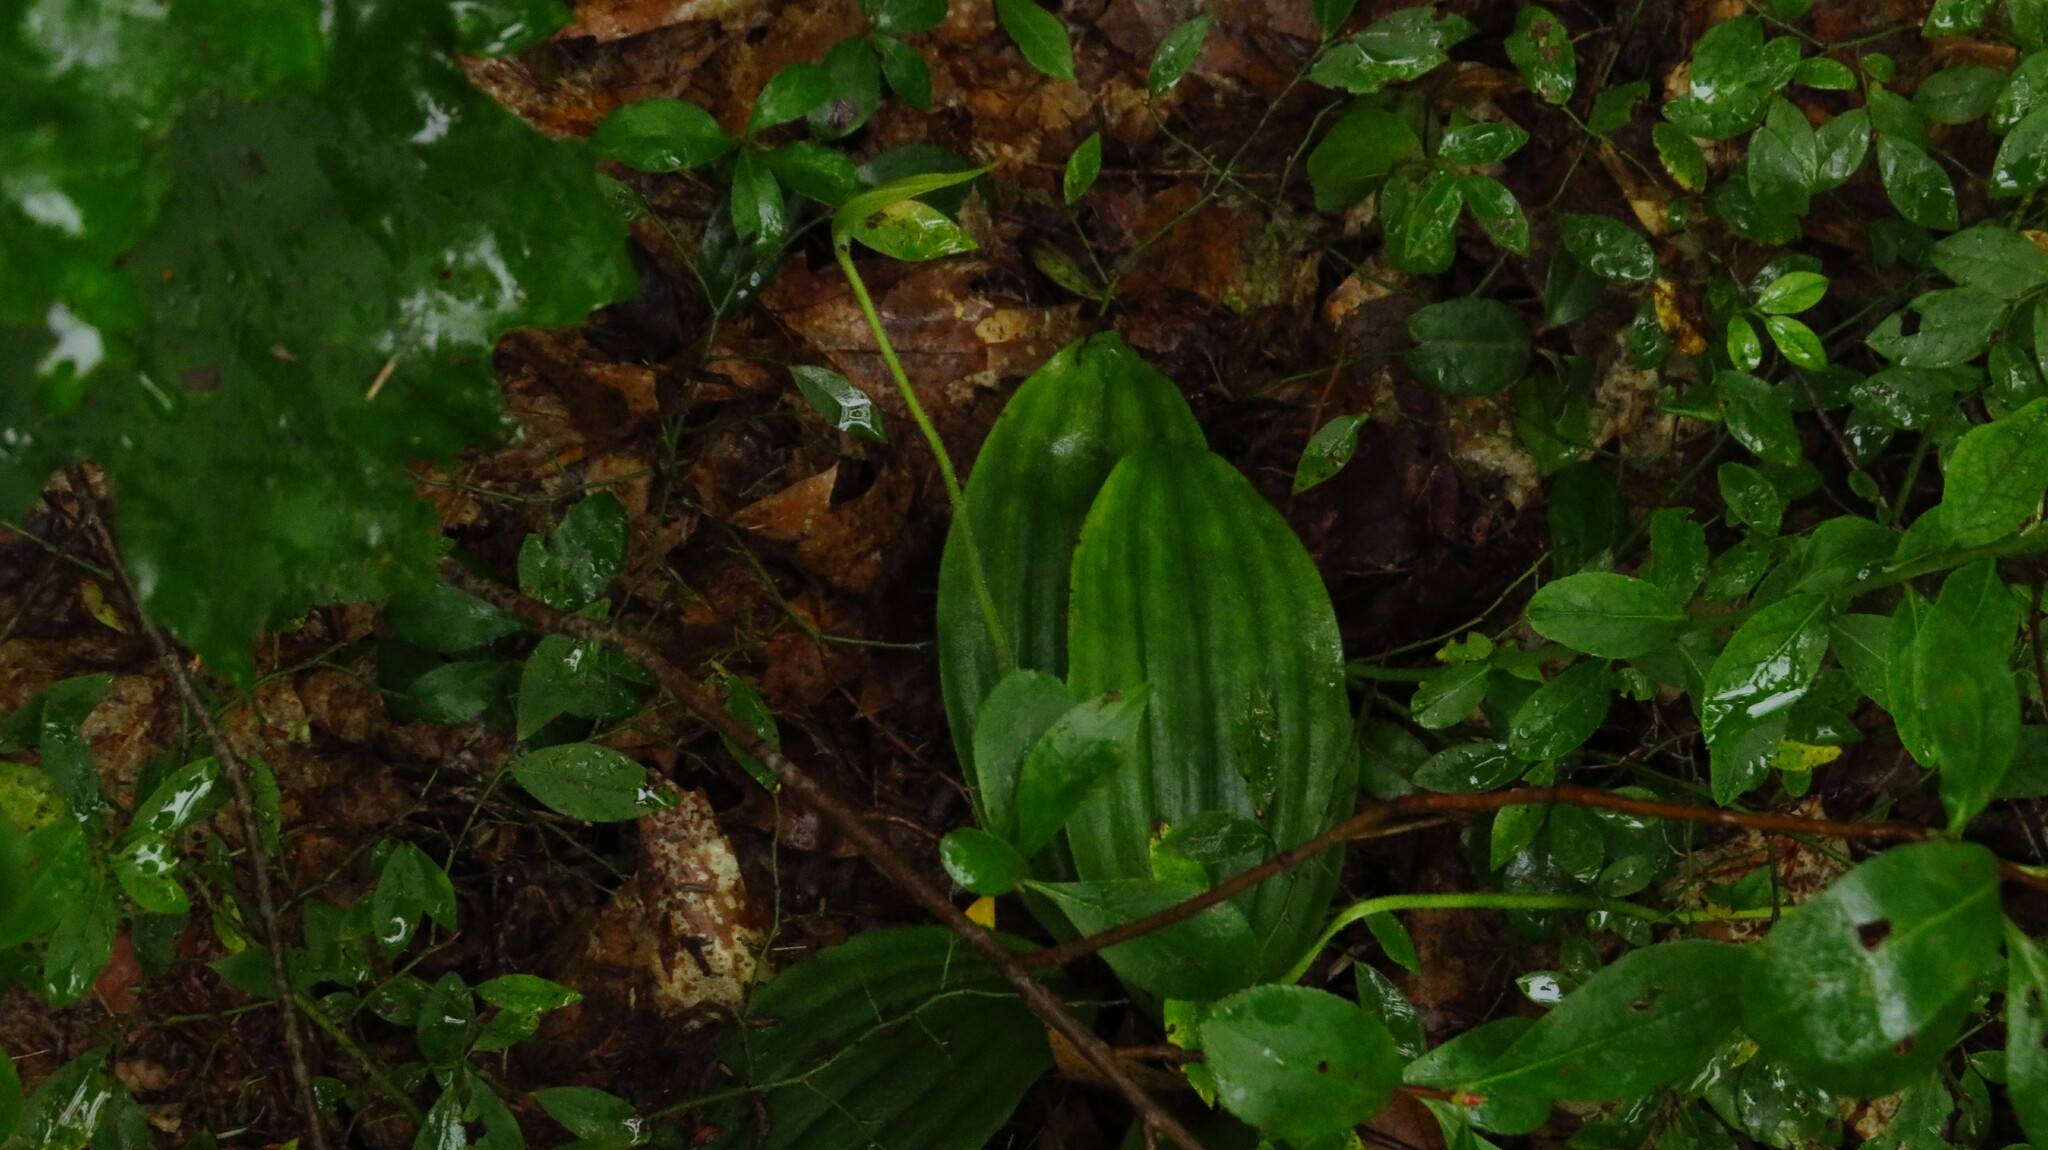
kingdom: Plantae
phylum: Tracheophyta
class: Liliopsida
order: Asparagales
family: Orchidaceae
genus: Cypripedium
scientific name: Cypripedium acaule
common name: Pink lady's-slipper
